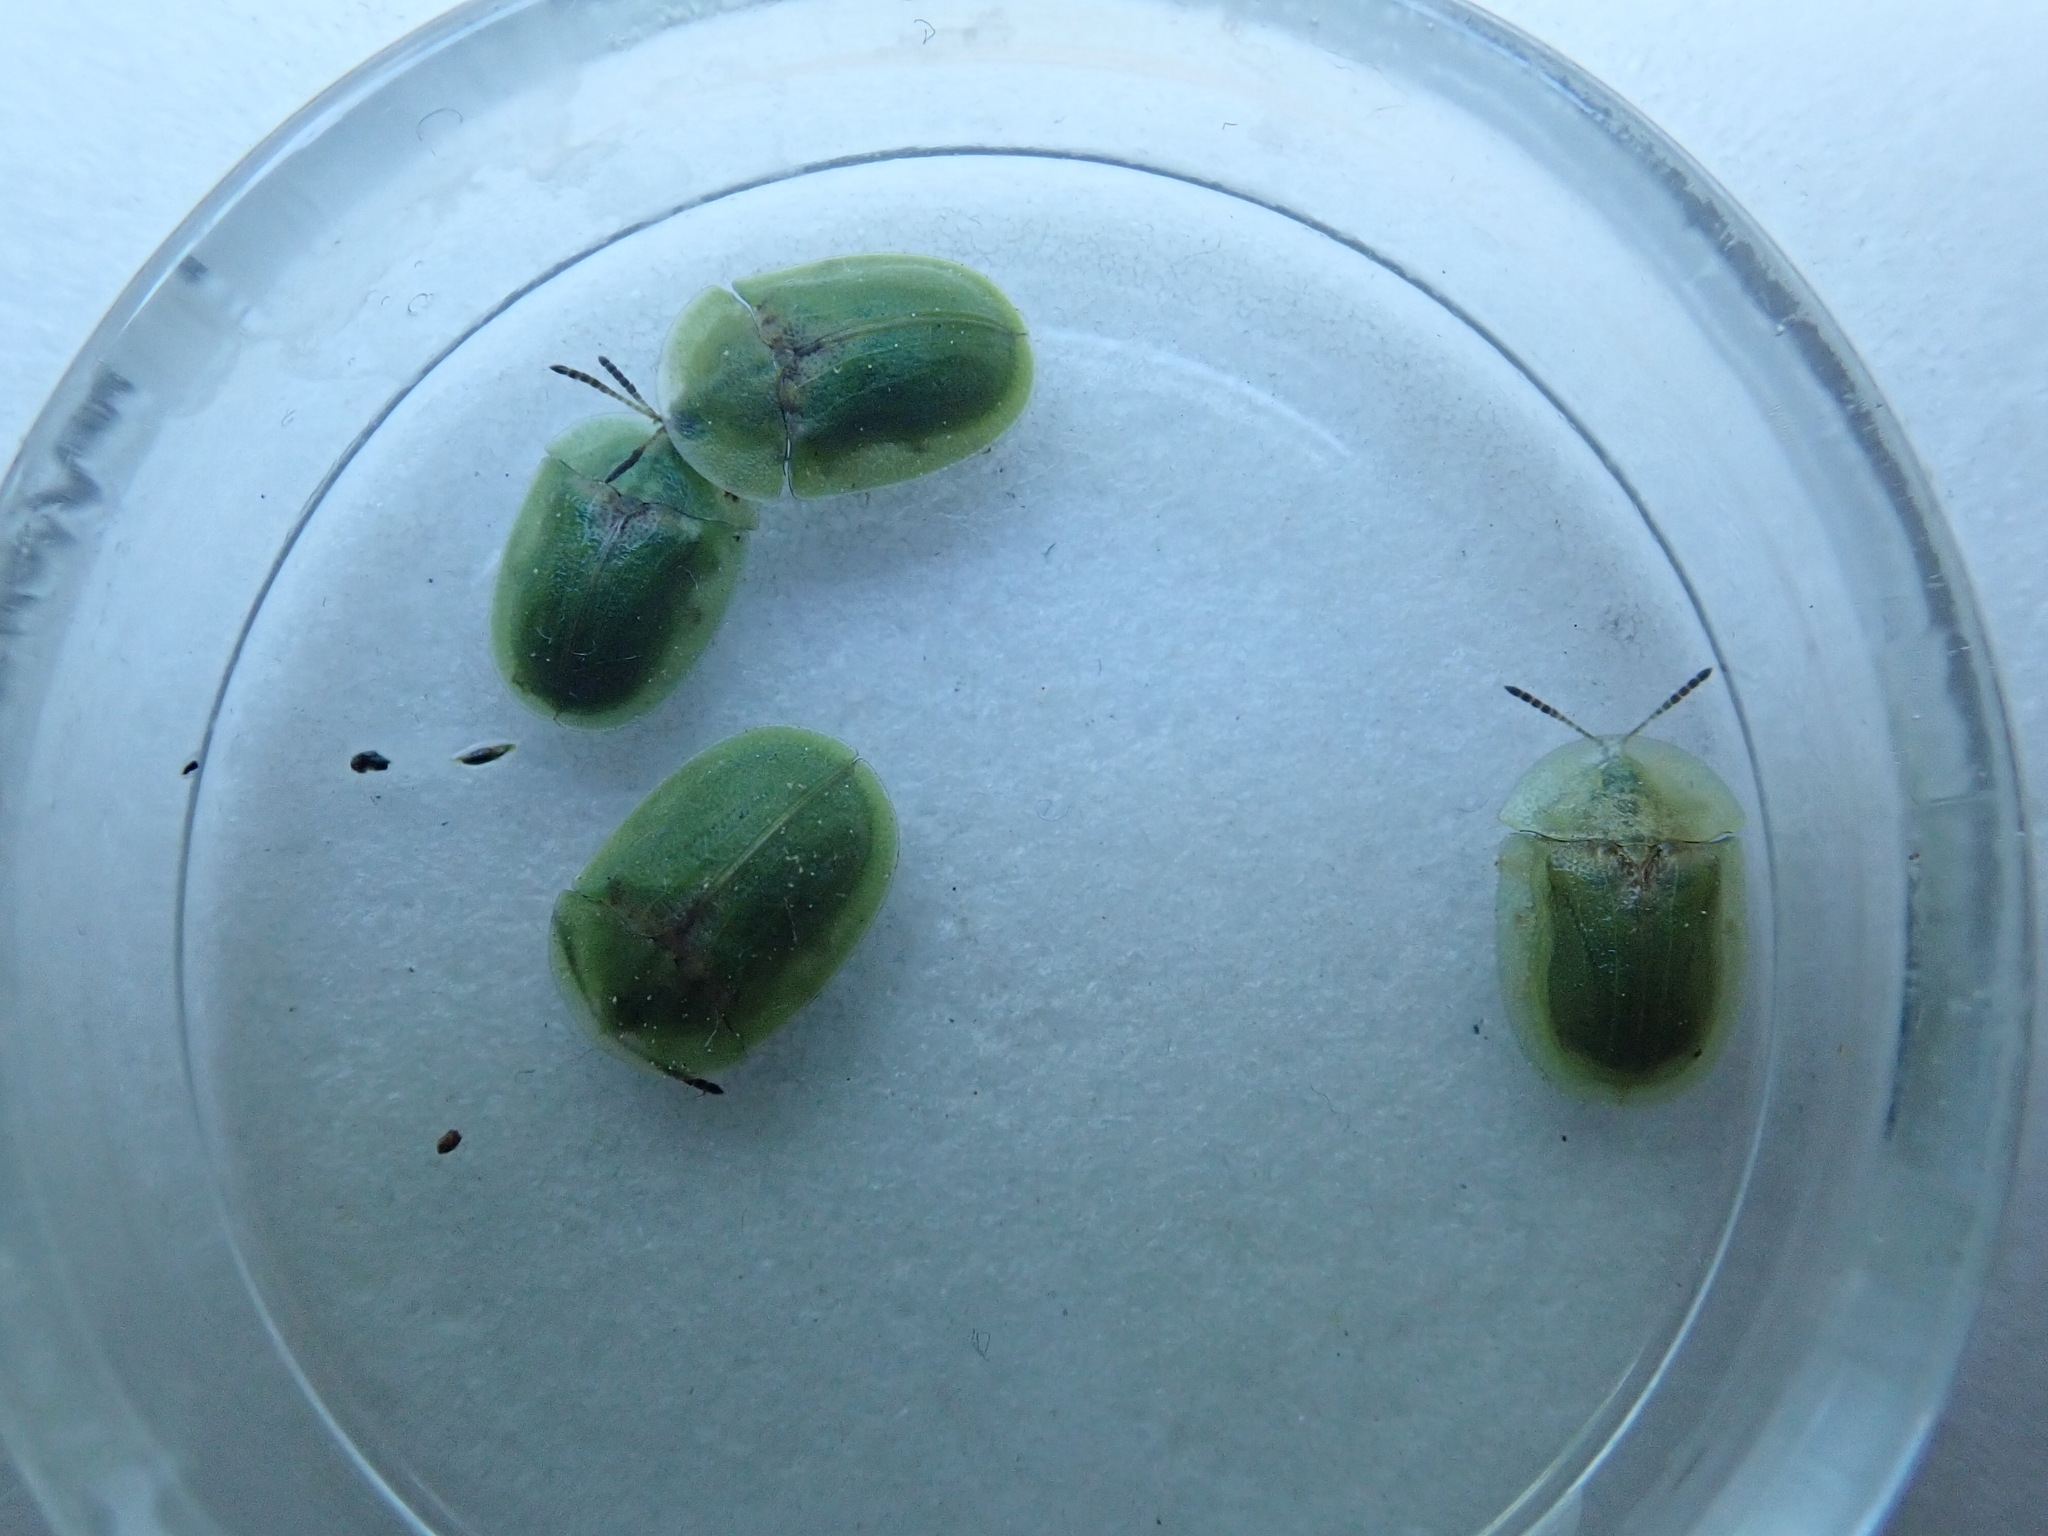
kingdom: Animalia
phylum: Arthropoda
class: Insecta
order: Coleoptera
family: Chrysomelidae
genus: Cassida
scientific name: Cassida rubiginosa
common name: Thistle tortoise beetle
